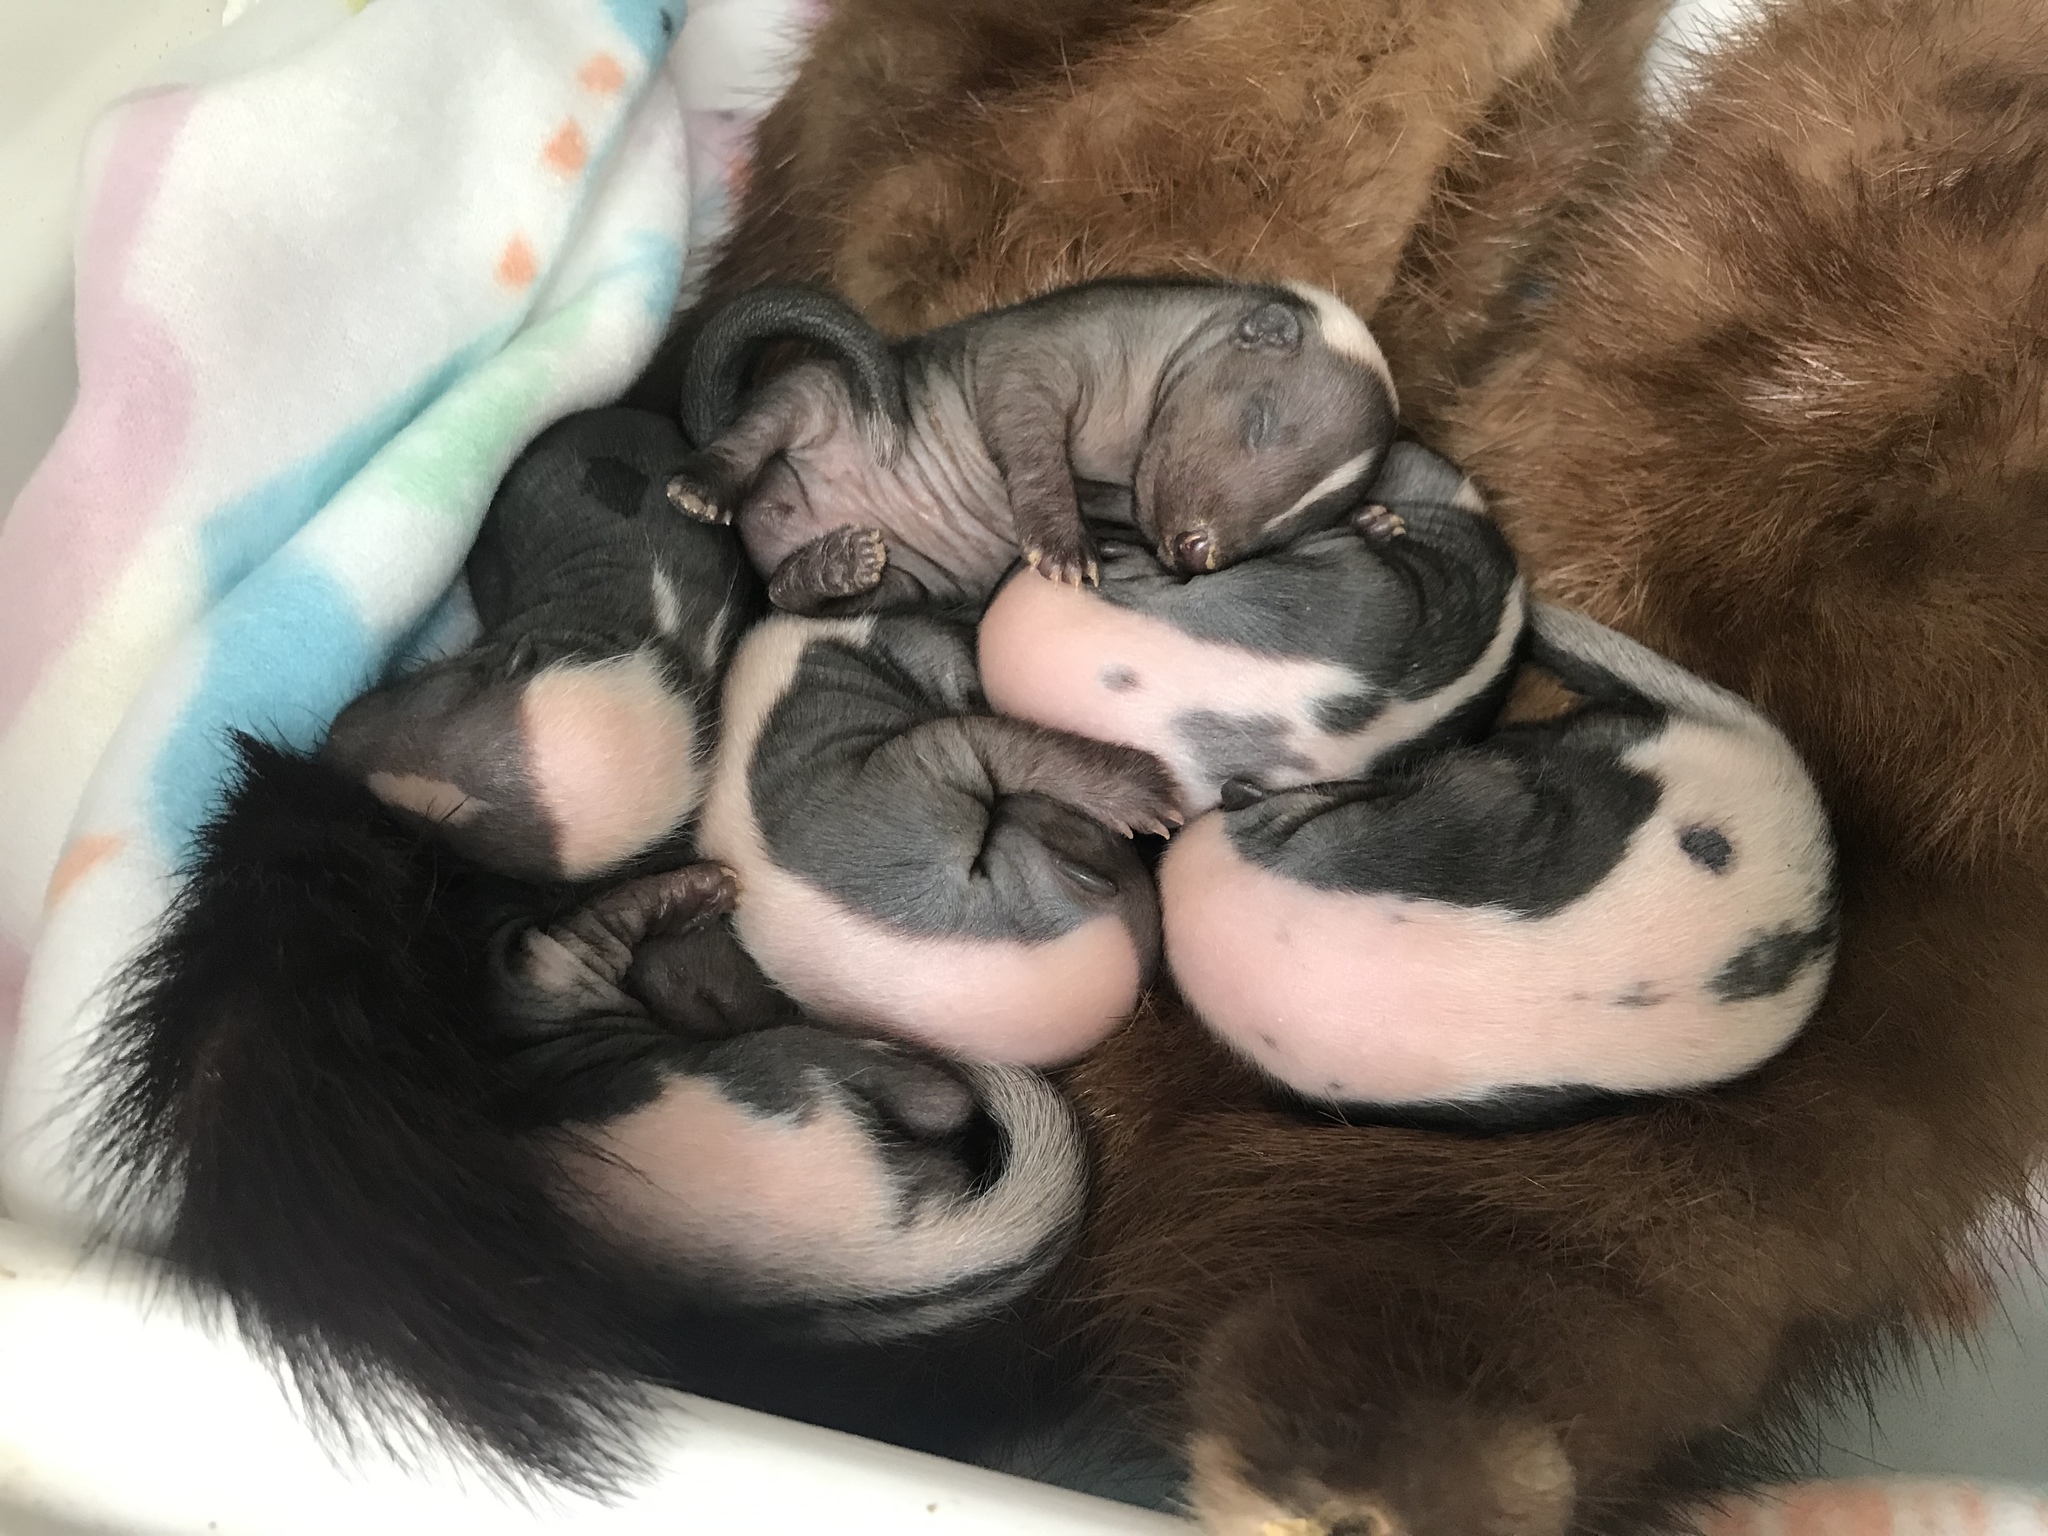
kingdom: Animalia
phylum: Chordata
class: Mammalia
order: Carnivora
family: Mephitidae
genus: Mephitis
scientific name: Mephitis mephitis
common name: Striped skunk
